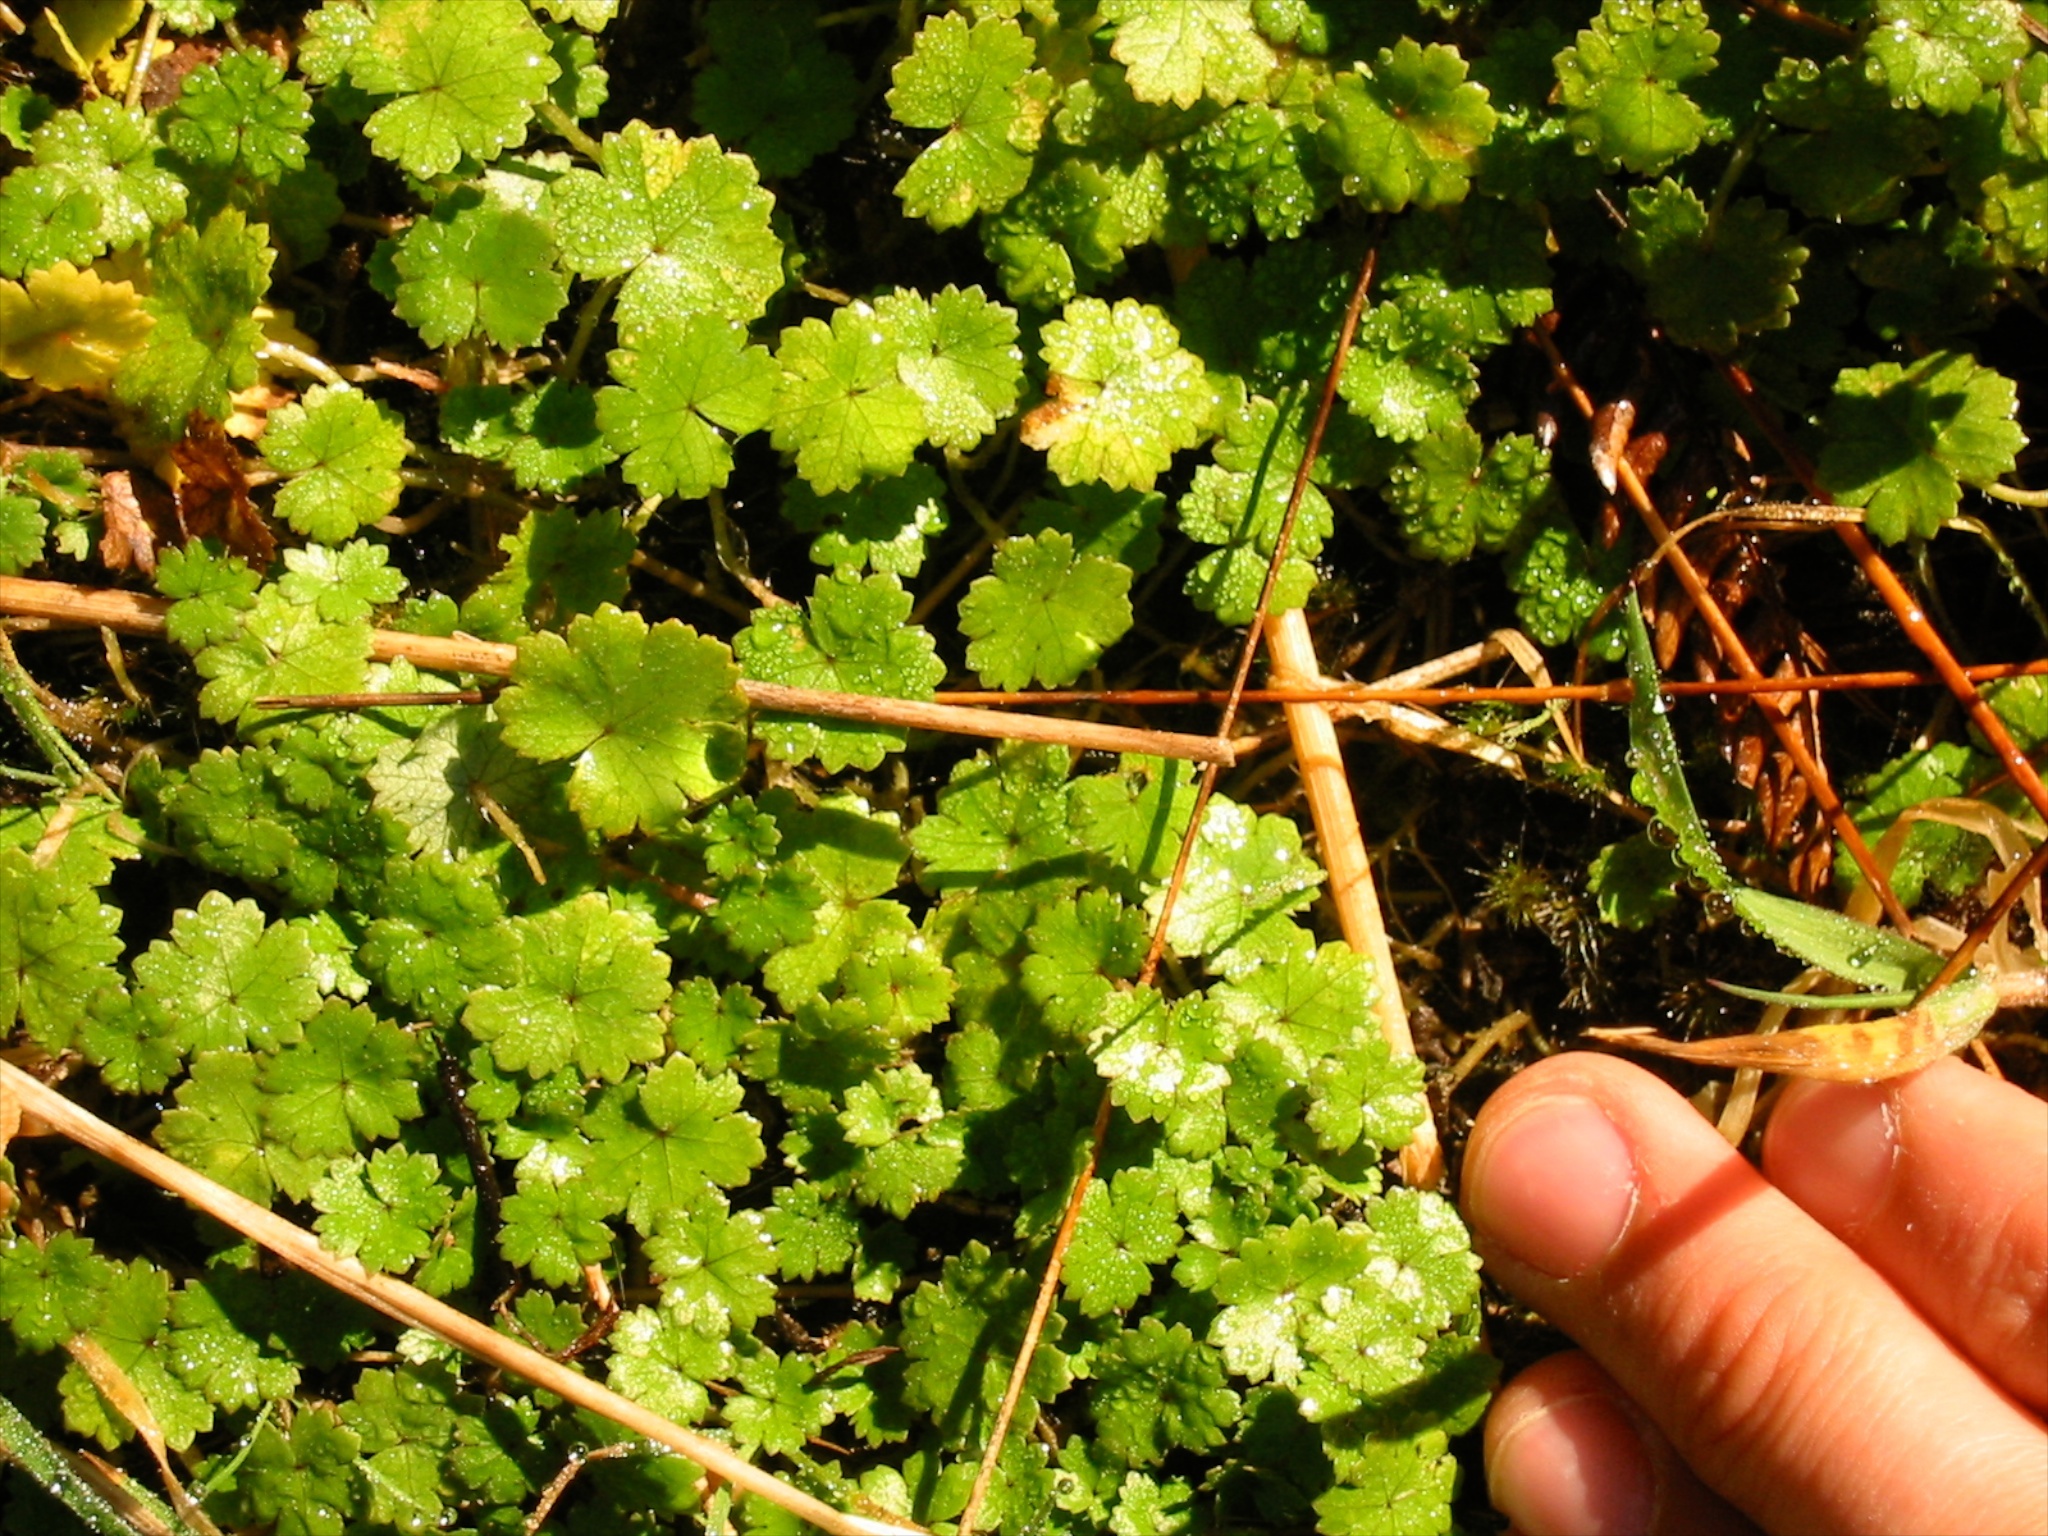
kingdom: Plantae
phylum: Tracheophyta
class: Magnoliopsida
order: Apiales
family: Araliaceae
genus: Hydrocotyle
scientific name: Hydrocotyle microphylla
